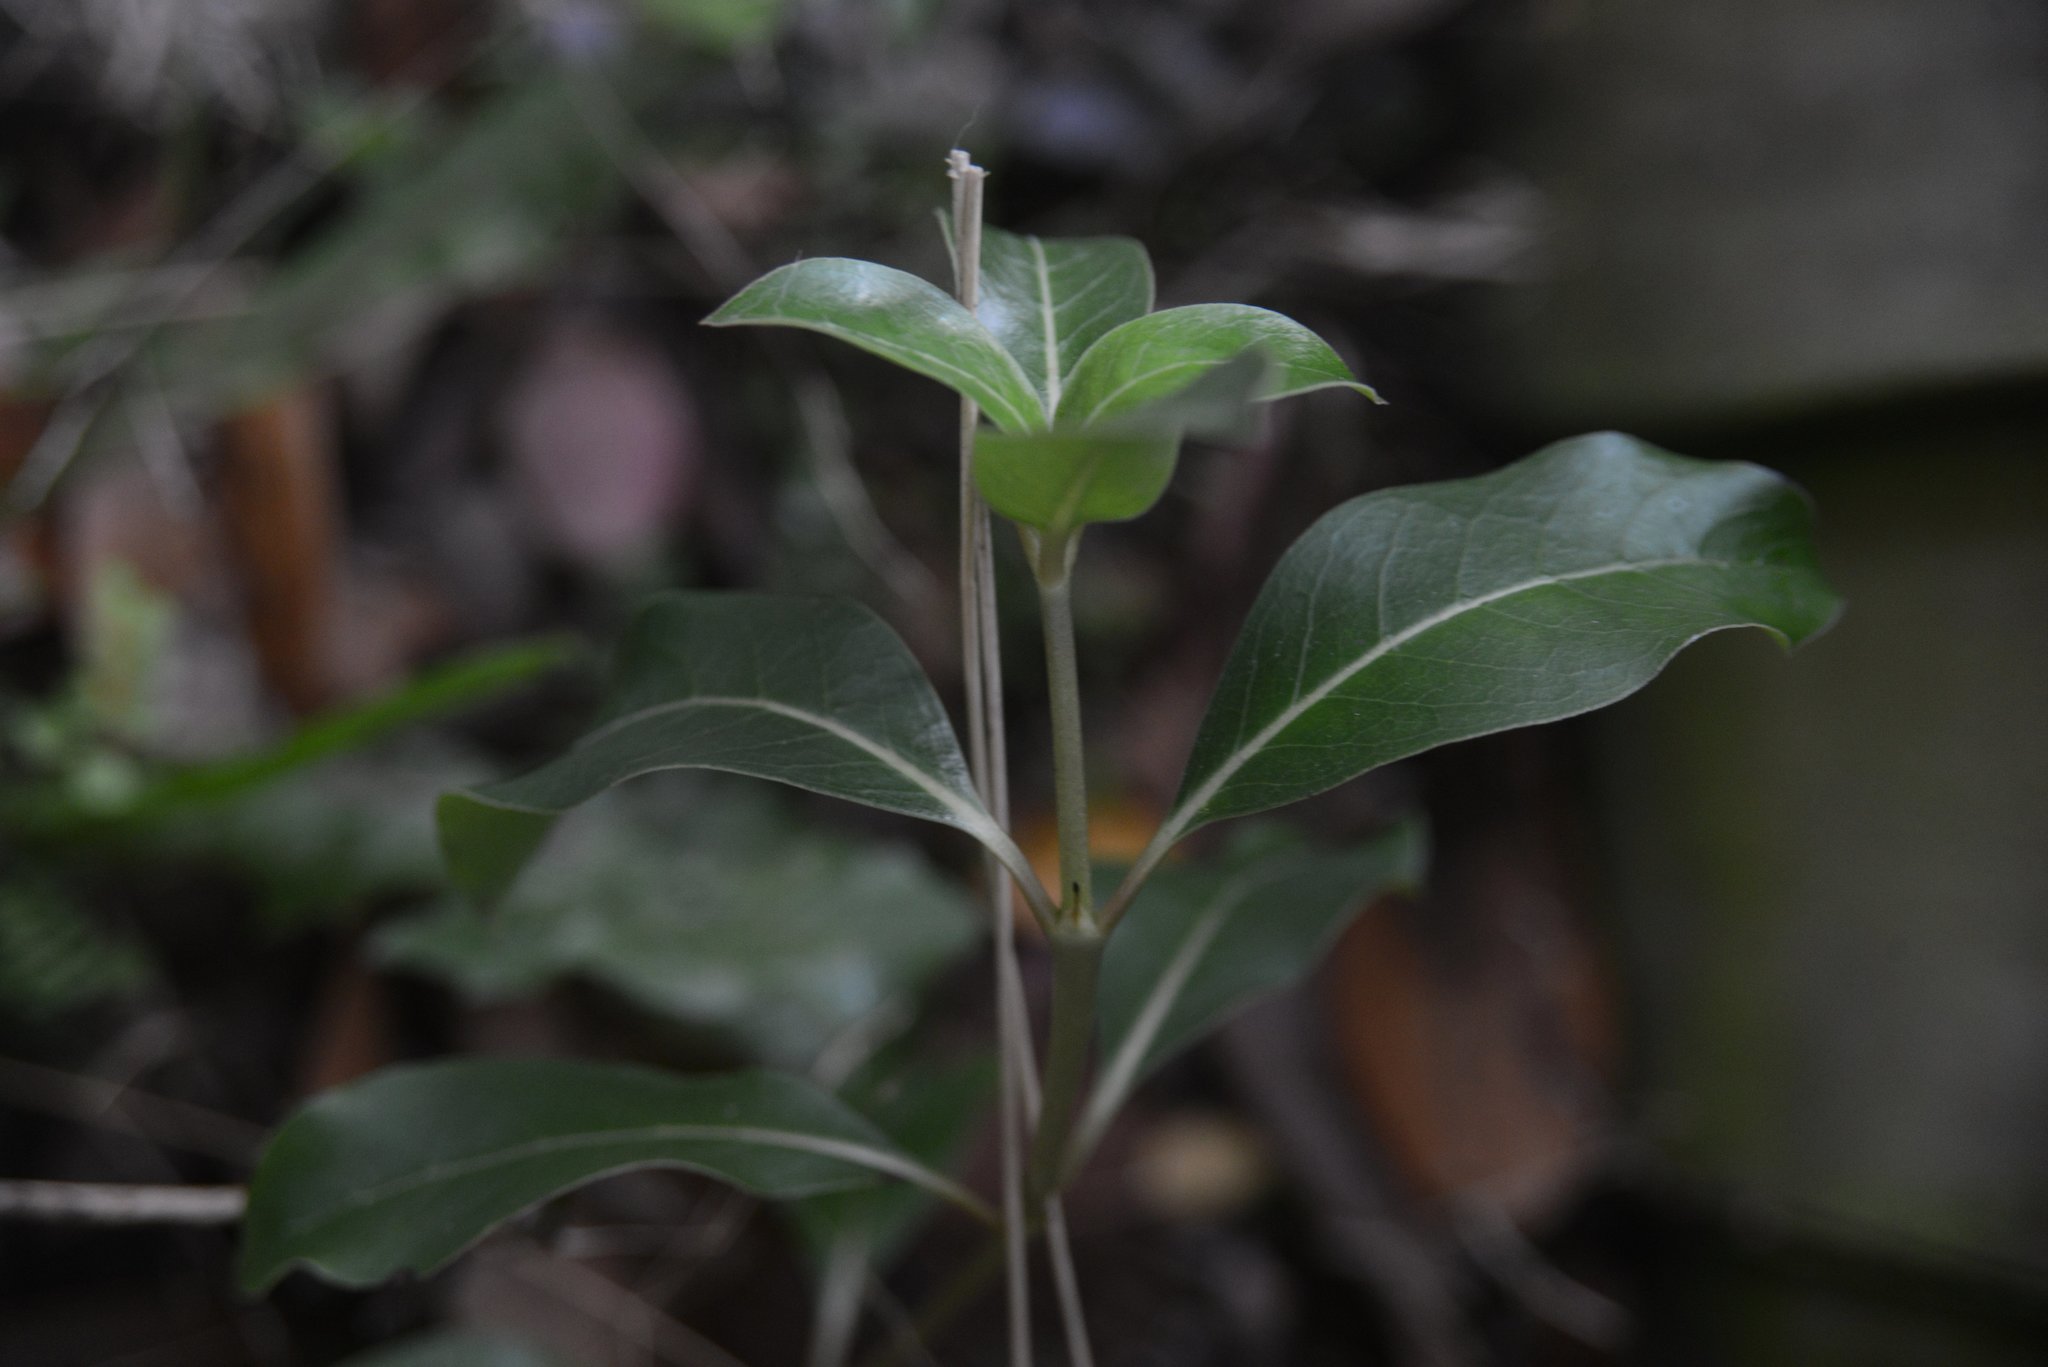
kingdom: Plantae
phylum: Tracheophyta
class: Magnoliopsida
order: Gentianales
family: Rubiaceae
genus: Coprosma
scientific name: Coprosma robusta
